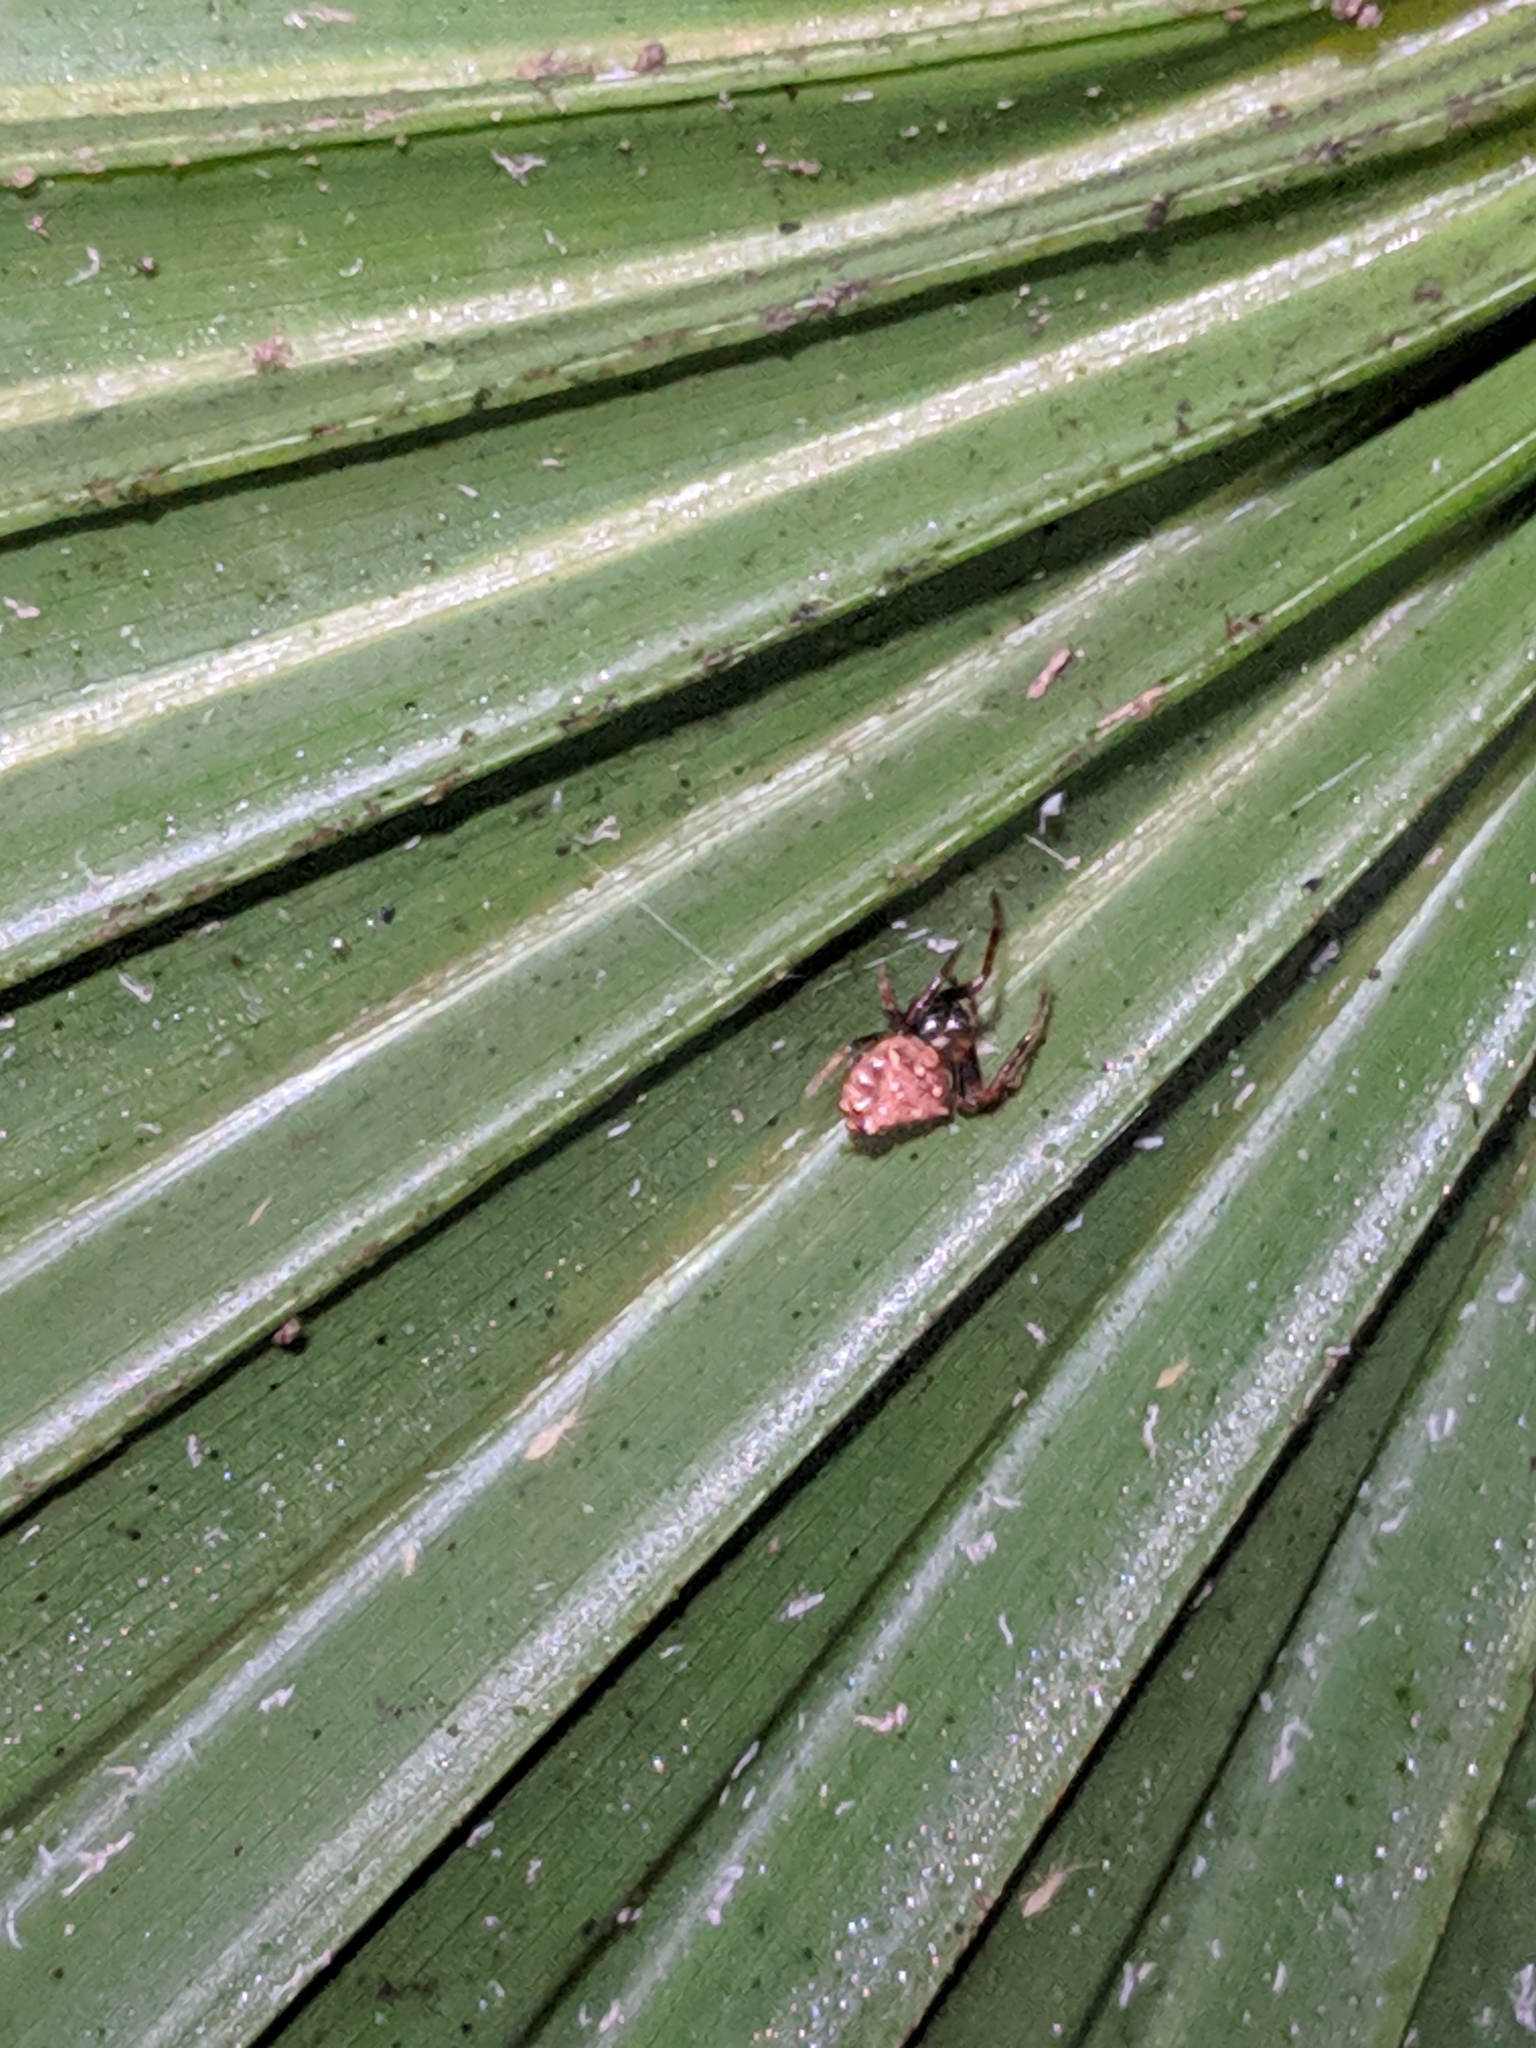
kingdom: Animalia
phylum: Arthropoda
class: Arachnida
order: Araneae
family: Araneidae
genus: Verrucosa
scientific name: Verrucosa arenata
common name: Orb weavers
